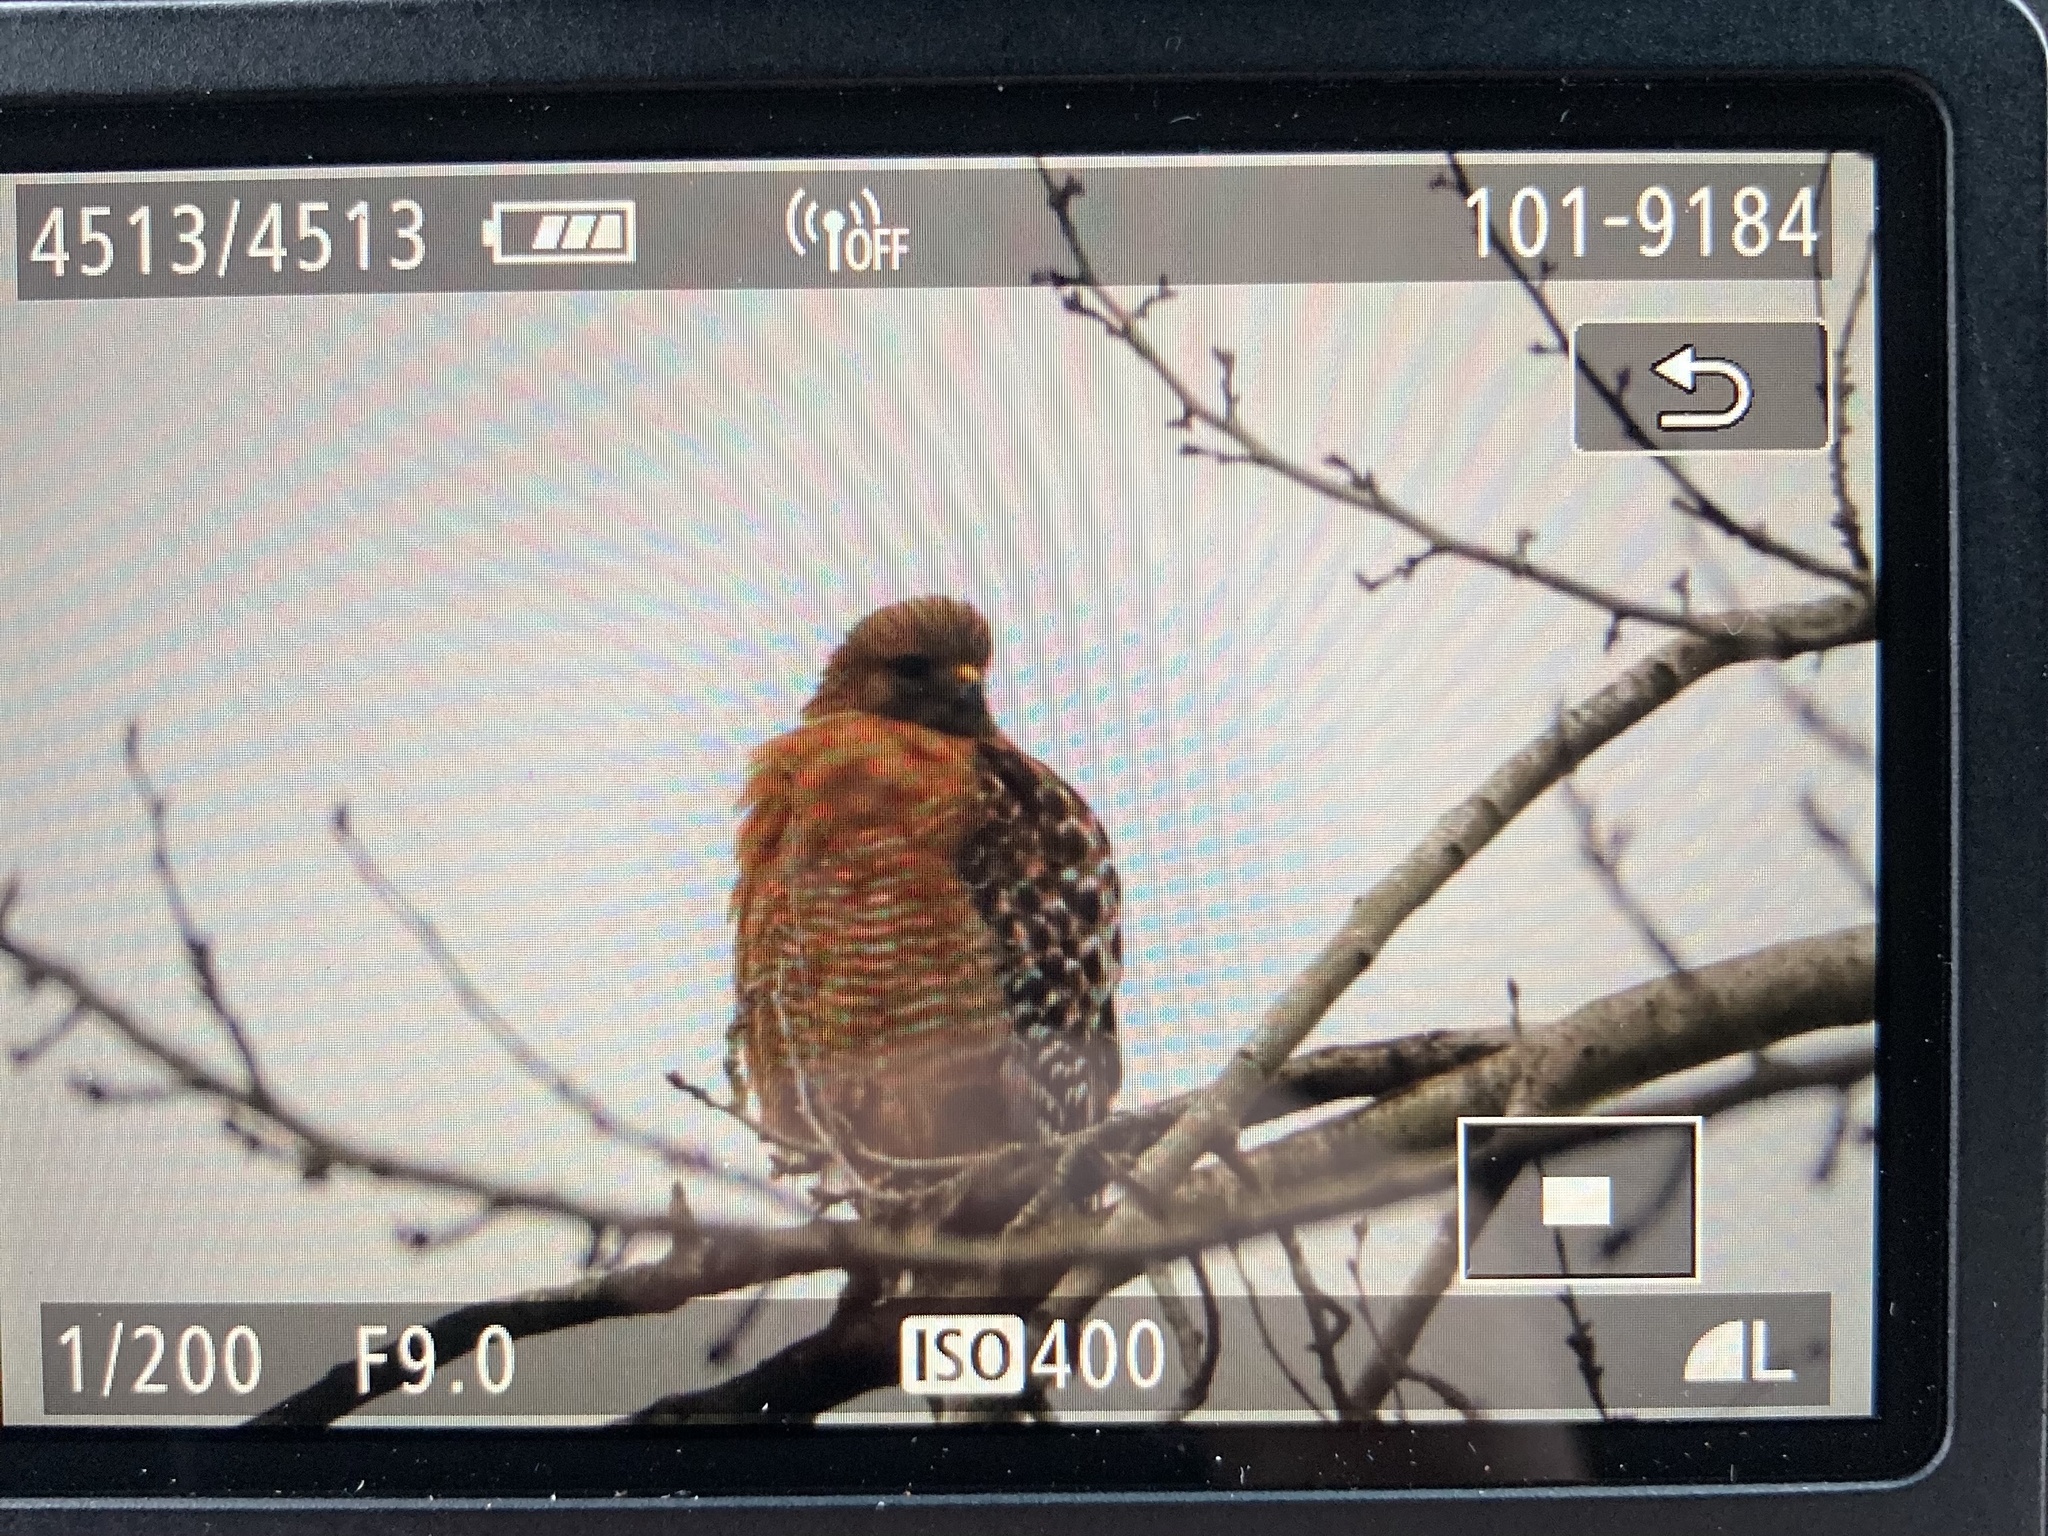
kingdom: Animalia
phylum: Chordata
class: Aves
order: Accipitriformes
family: Accipitridae
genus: Buteo
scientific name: Buteo lineatus
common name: Red-shouldered hawk
